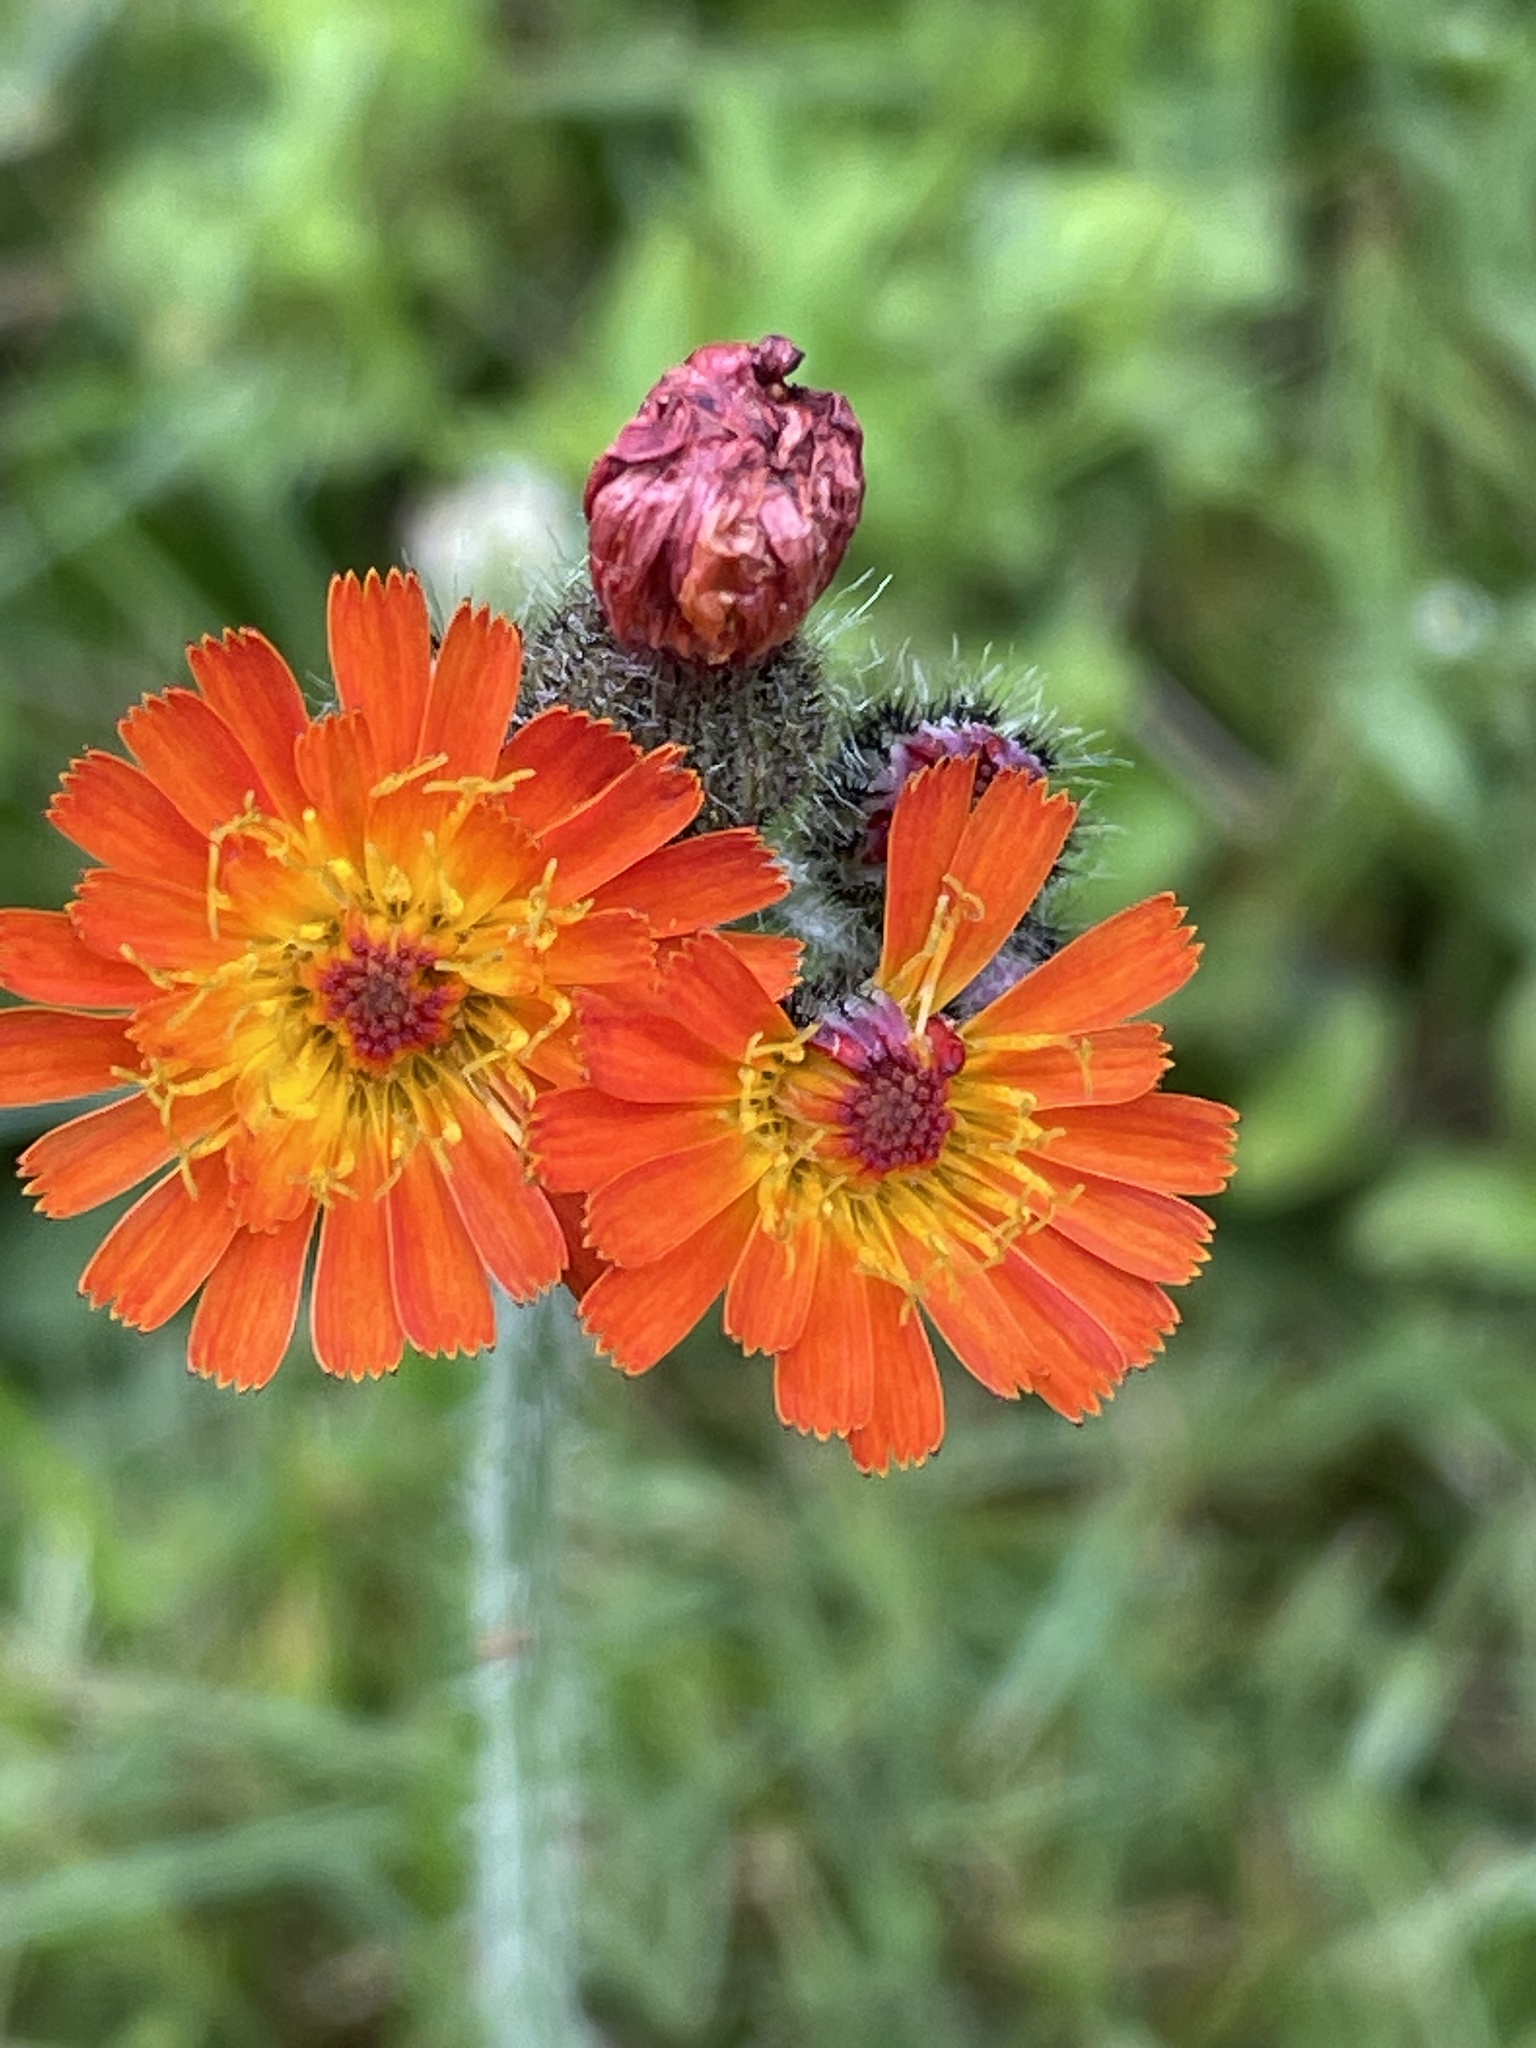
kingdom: Plantae
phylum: Tracheophyta
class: Magnoliopsida
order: Asterales
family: Asteraceae
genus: Pilosella
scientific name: Pilosella aurantiaca
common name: Fox-and-cubs
